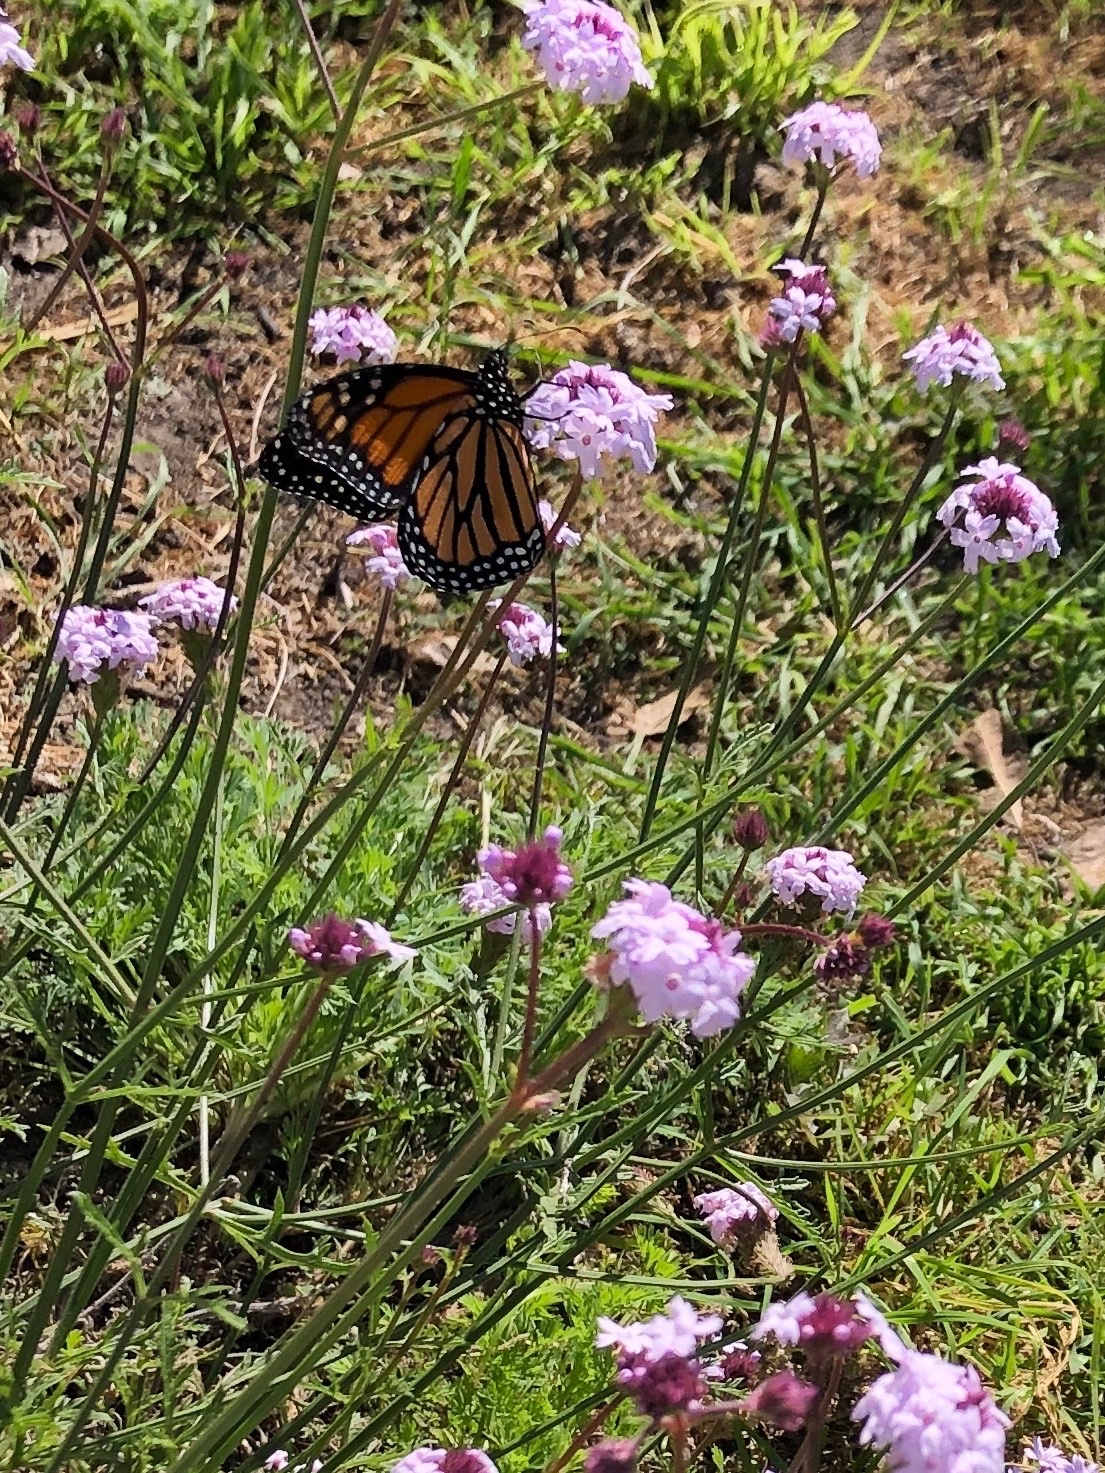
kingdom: Animalia
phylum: Arthropoda
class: Insecta
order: Lepidoptera
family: Nymphalidae
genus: Danaus
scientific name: Danaus plexippus
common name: Monarch
